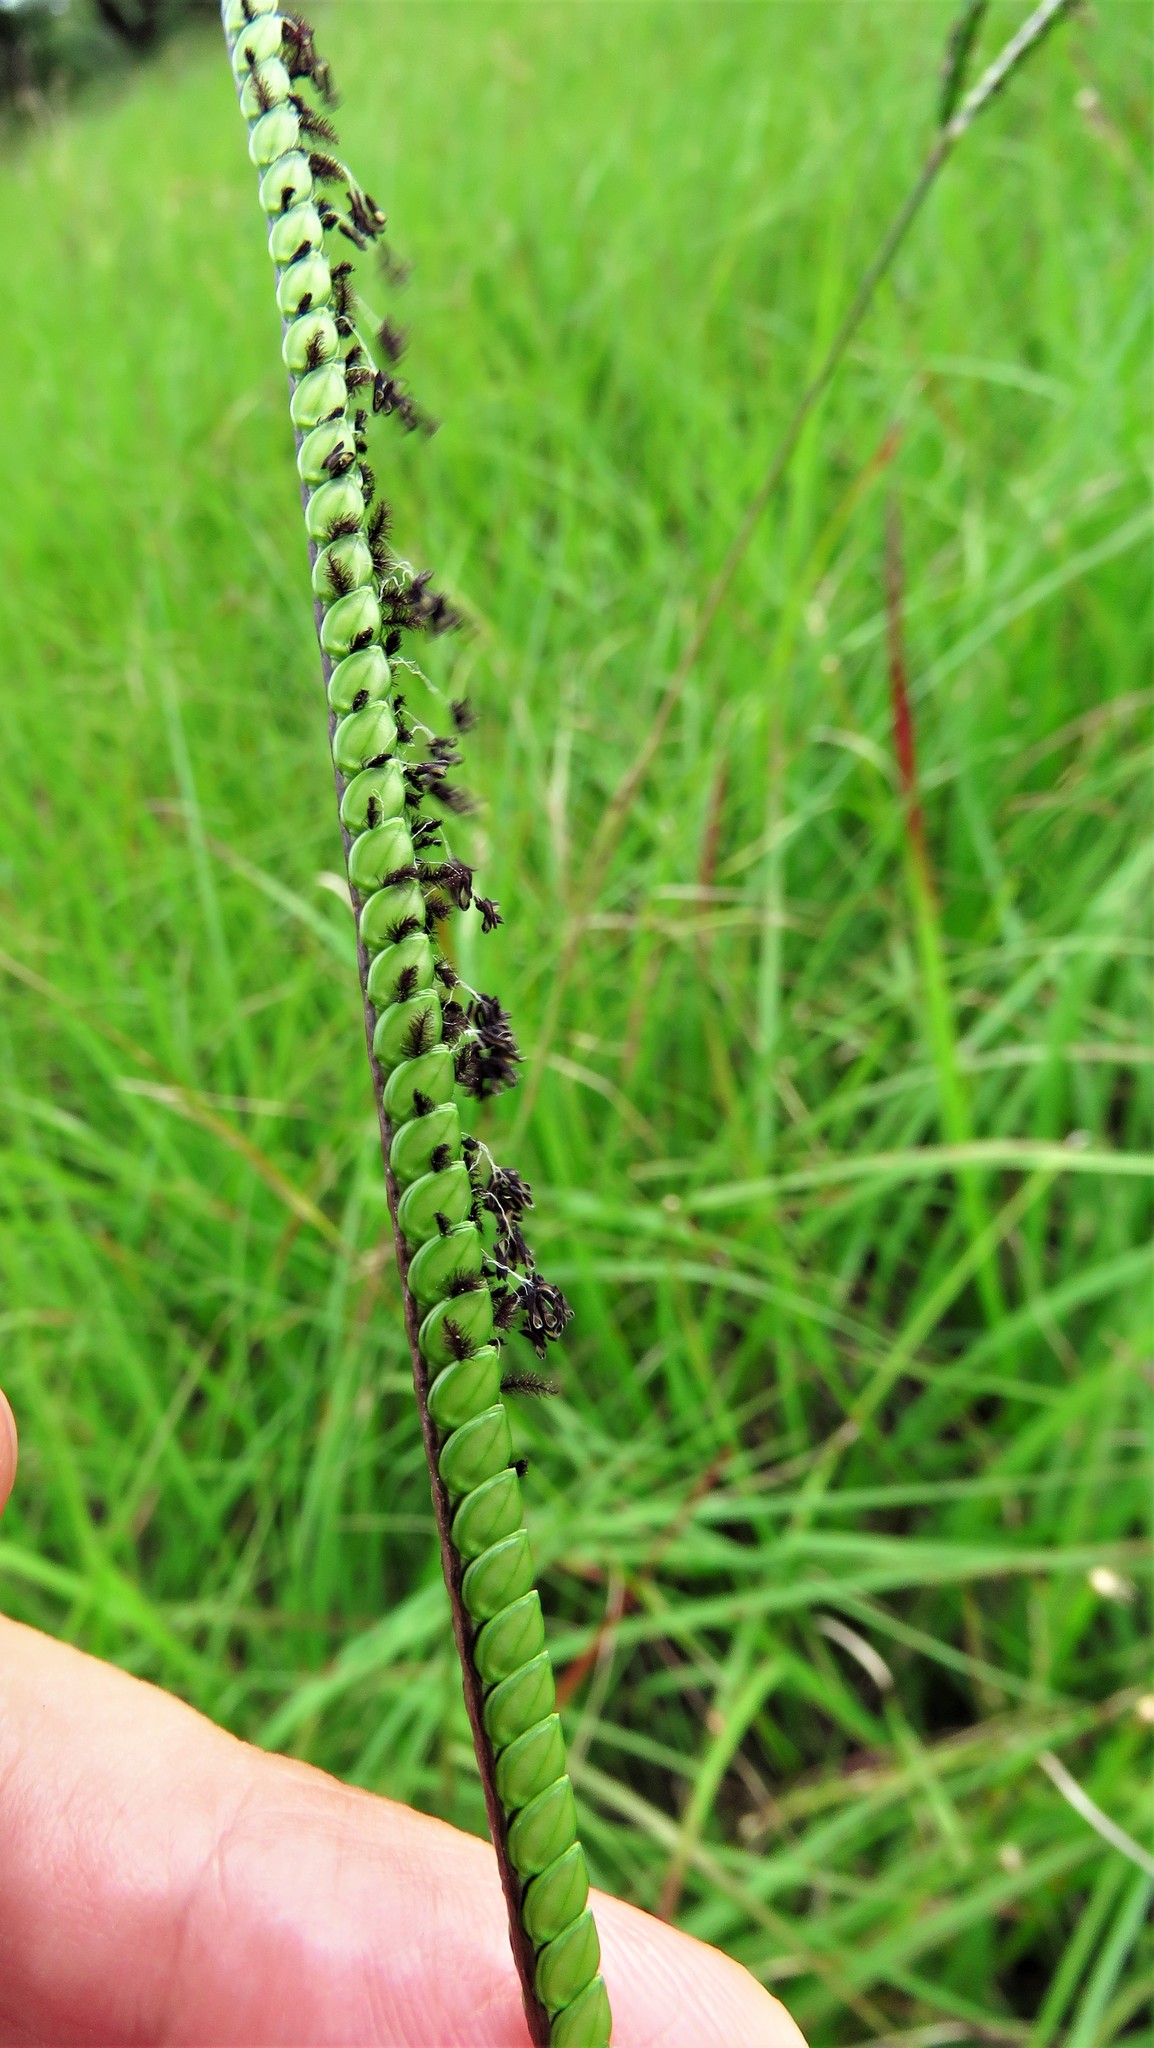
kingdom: Plantae
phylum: Tracheophyta
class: Liliopsida
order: Poales
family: Poaceae
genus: Paspalum
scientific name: Paspalum notatum
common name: Bahiagrass
